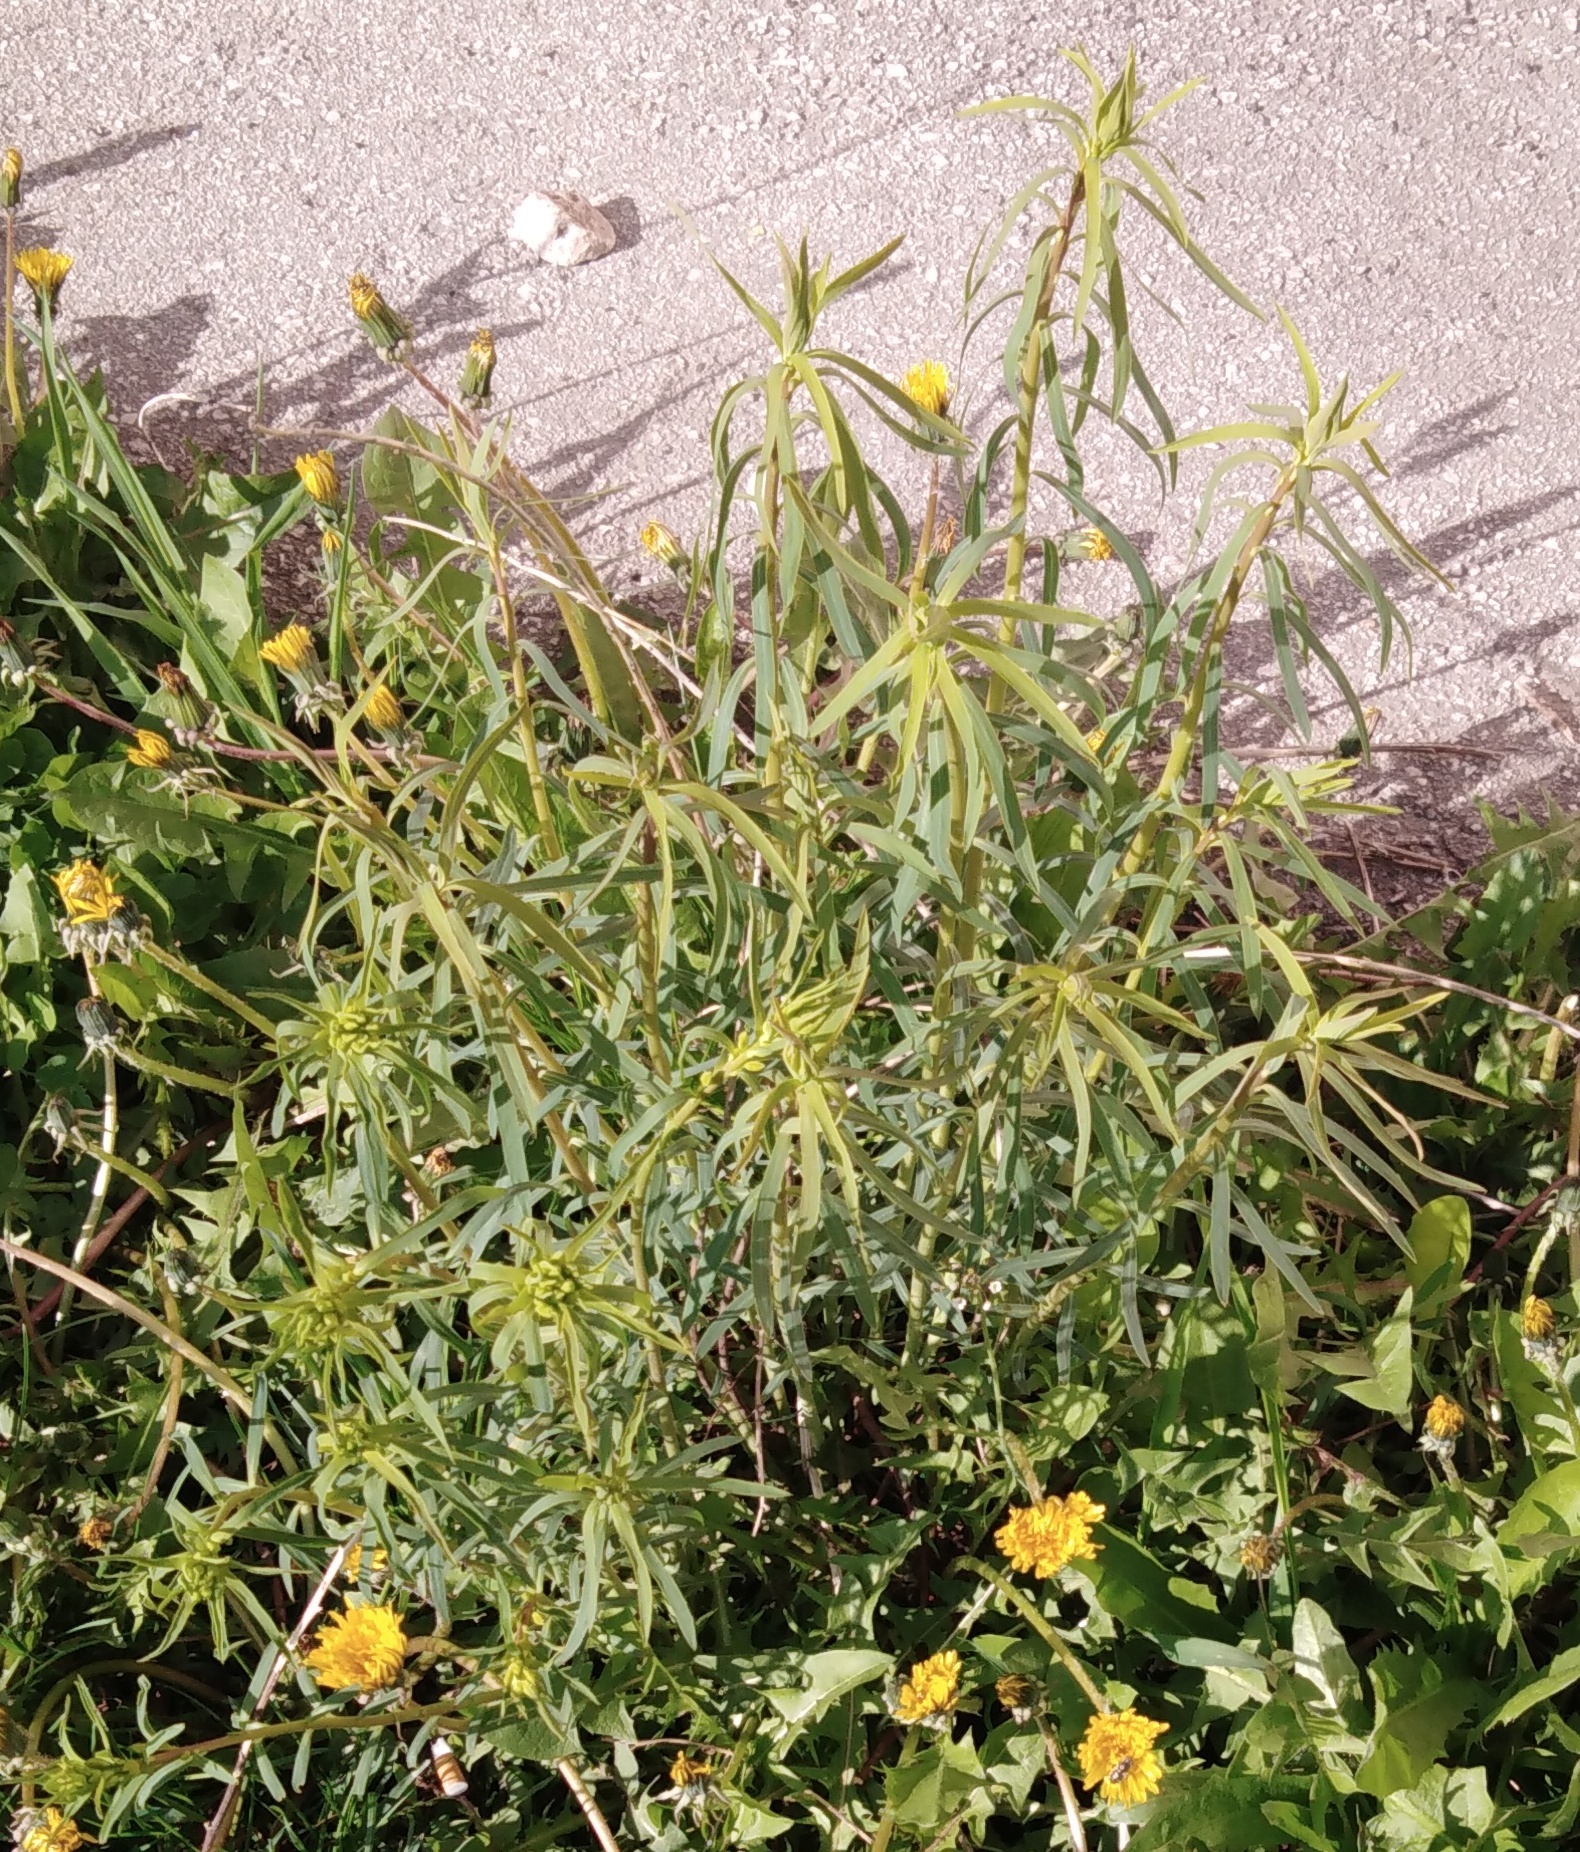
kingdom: Plantae
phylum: Tracheophyta
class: Magnoliopsida
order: Malpighiales
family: Euphorbiaceae
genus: Euphorbia
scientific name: Euphorbia virgata
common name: Leafy spurge
